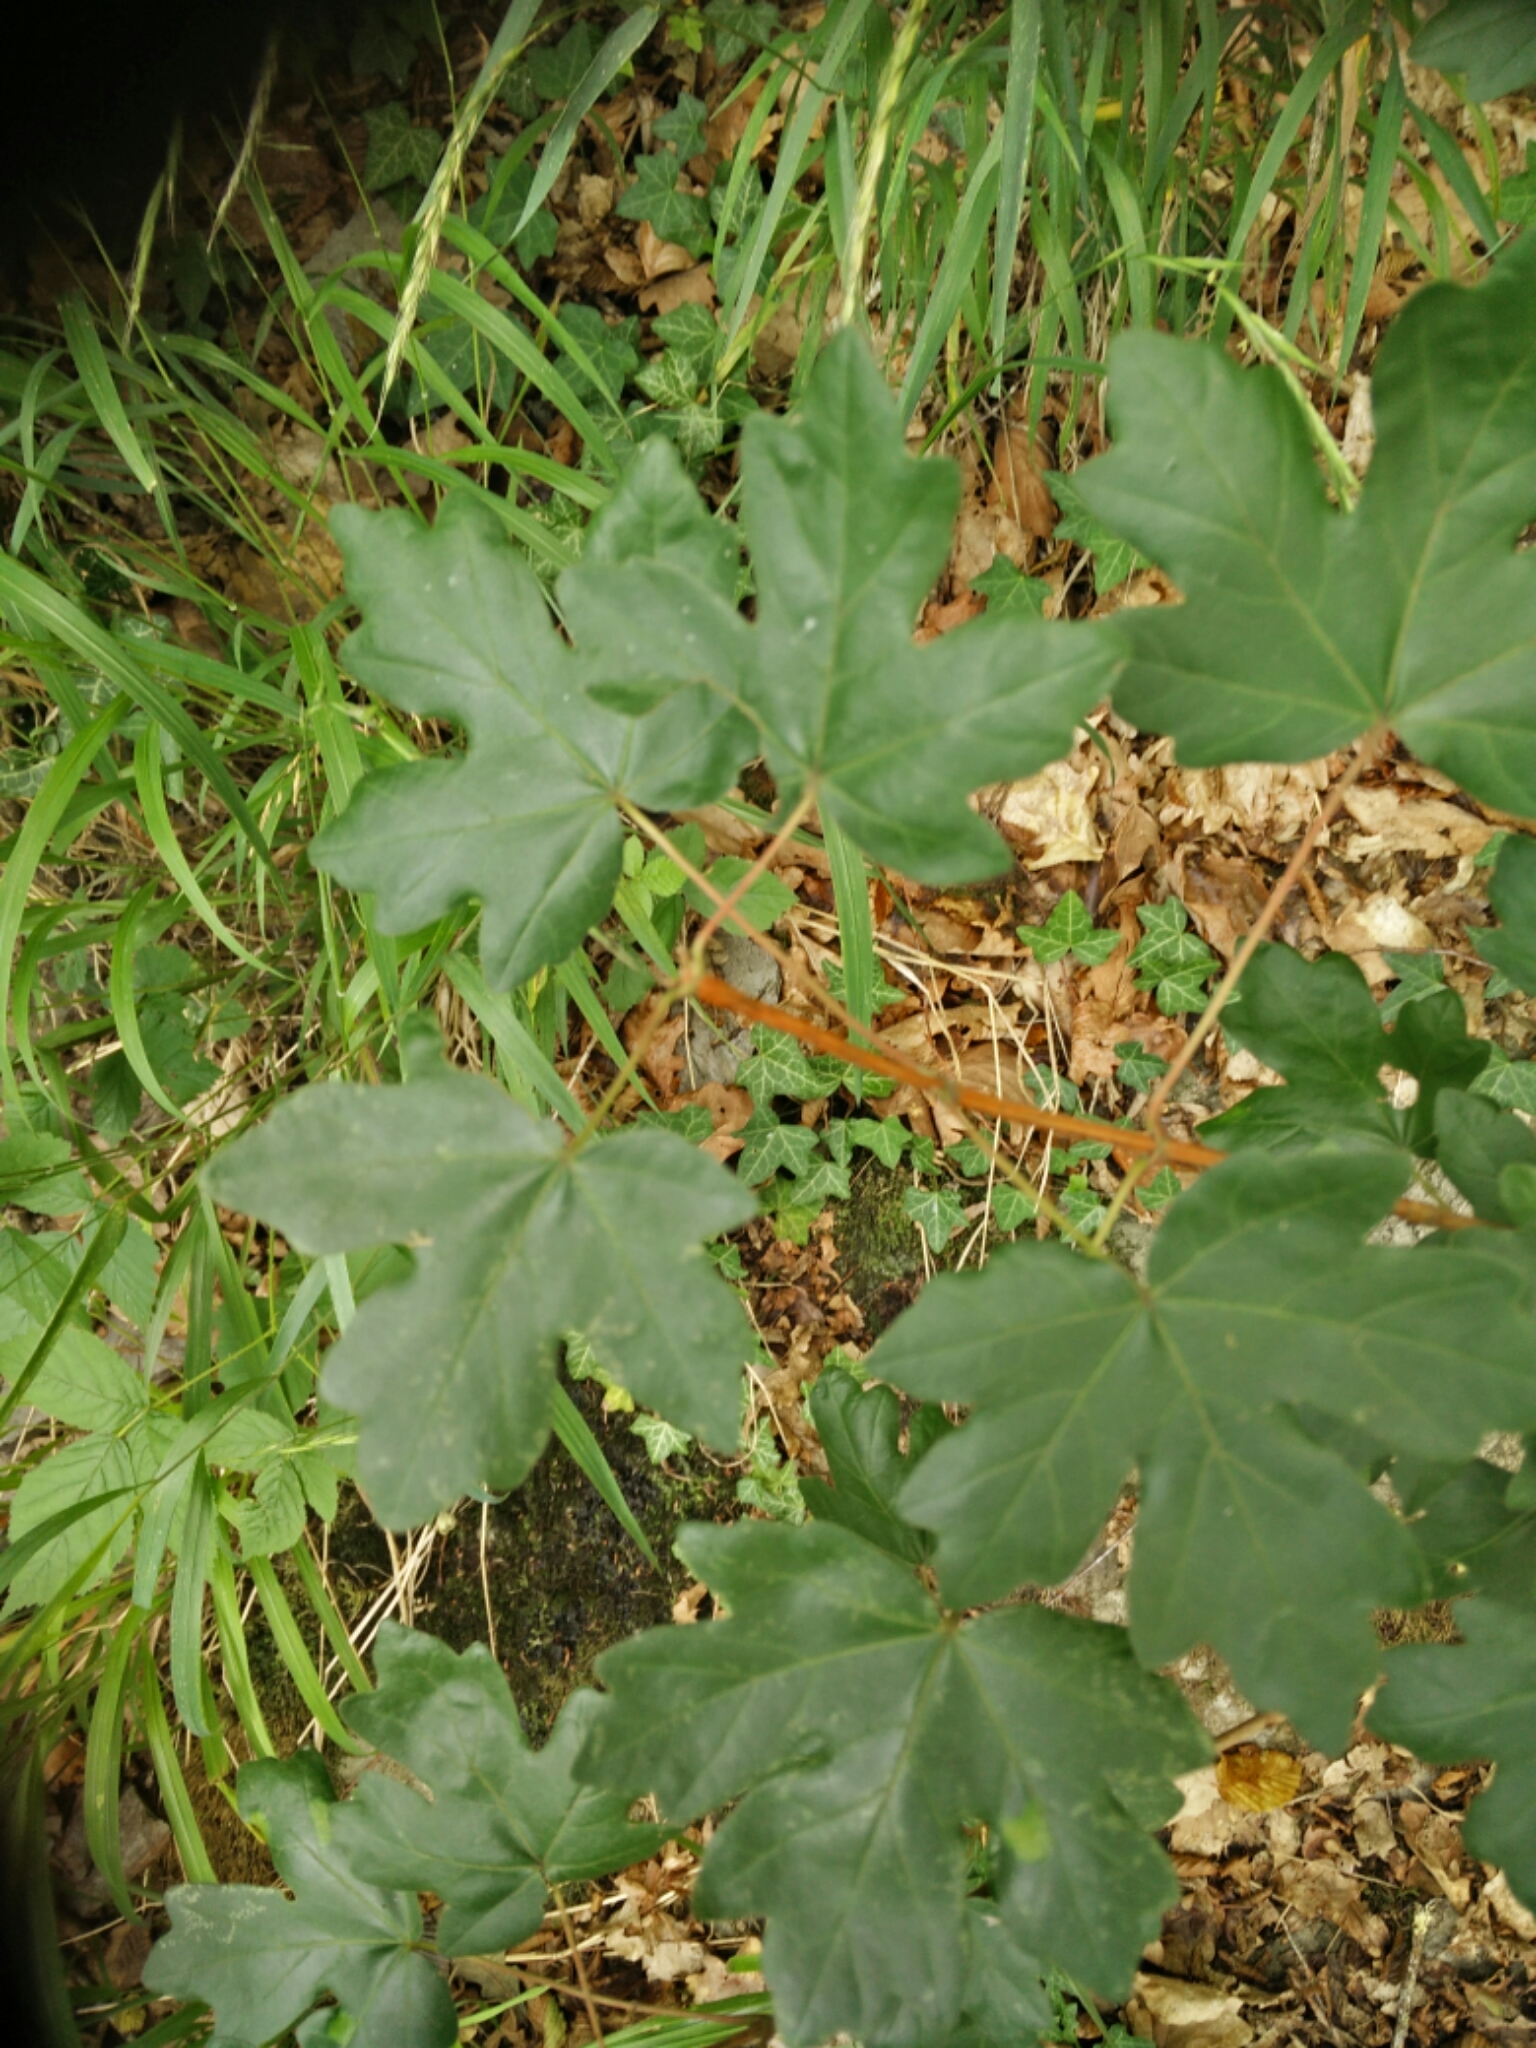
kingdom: Plantae
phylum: Tracheophyta
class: Magnoliopsida
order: Sapindales
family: Sapindaceae
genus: Acer
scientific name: Acer campestre
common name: Field maple
